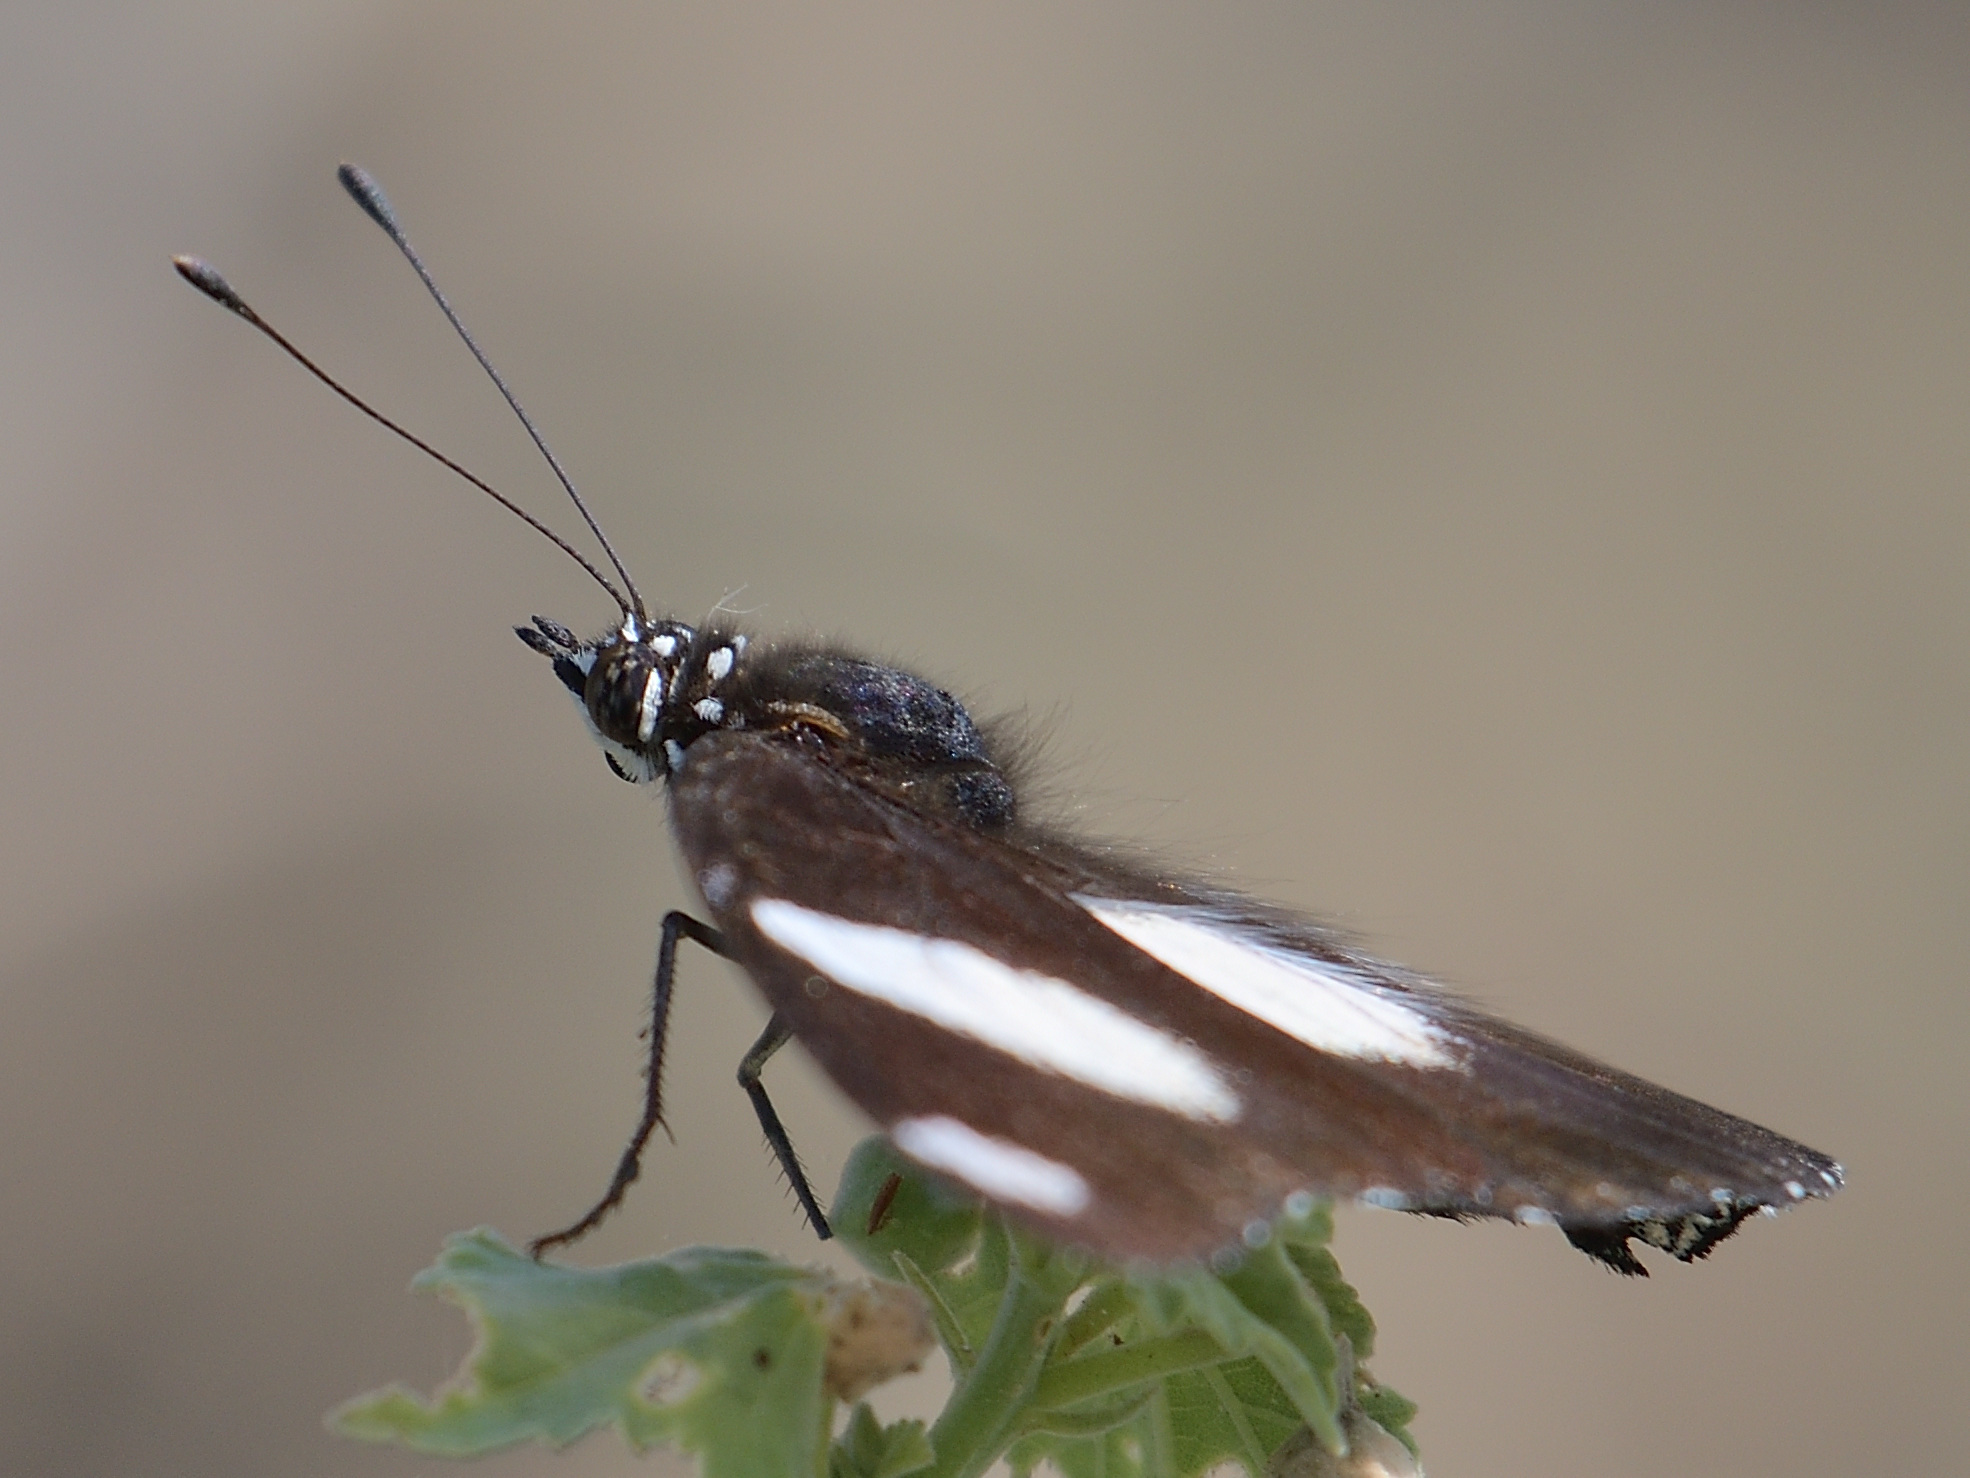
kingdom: Animalia
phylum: Arthropoda
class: Insecta
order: Lepidoptera
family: Nymphalidae
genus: Hypolimnas
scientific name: Hypolimnas misippus
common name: False plain tiger
